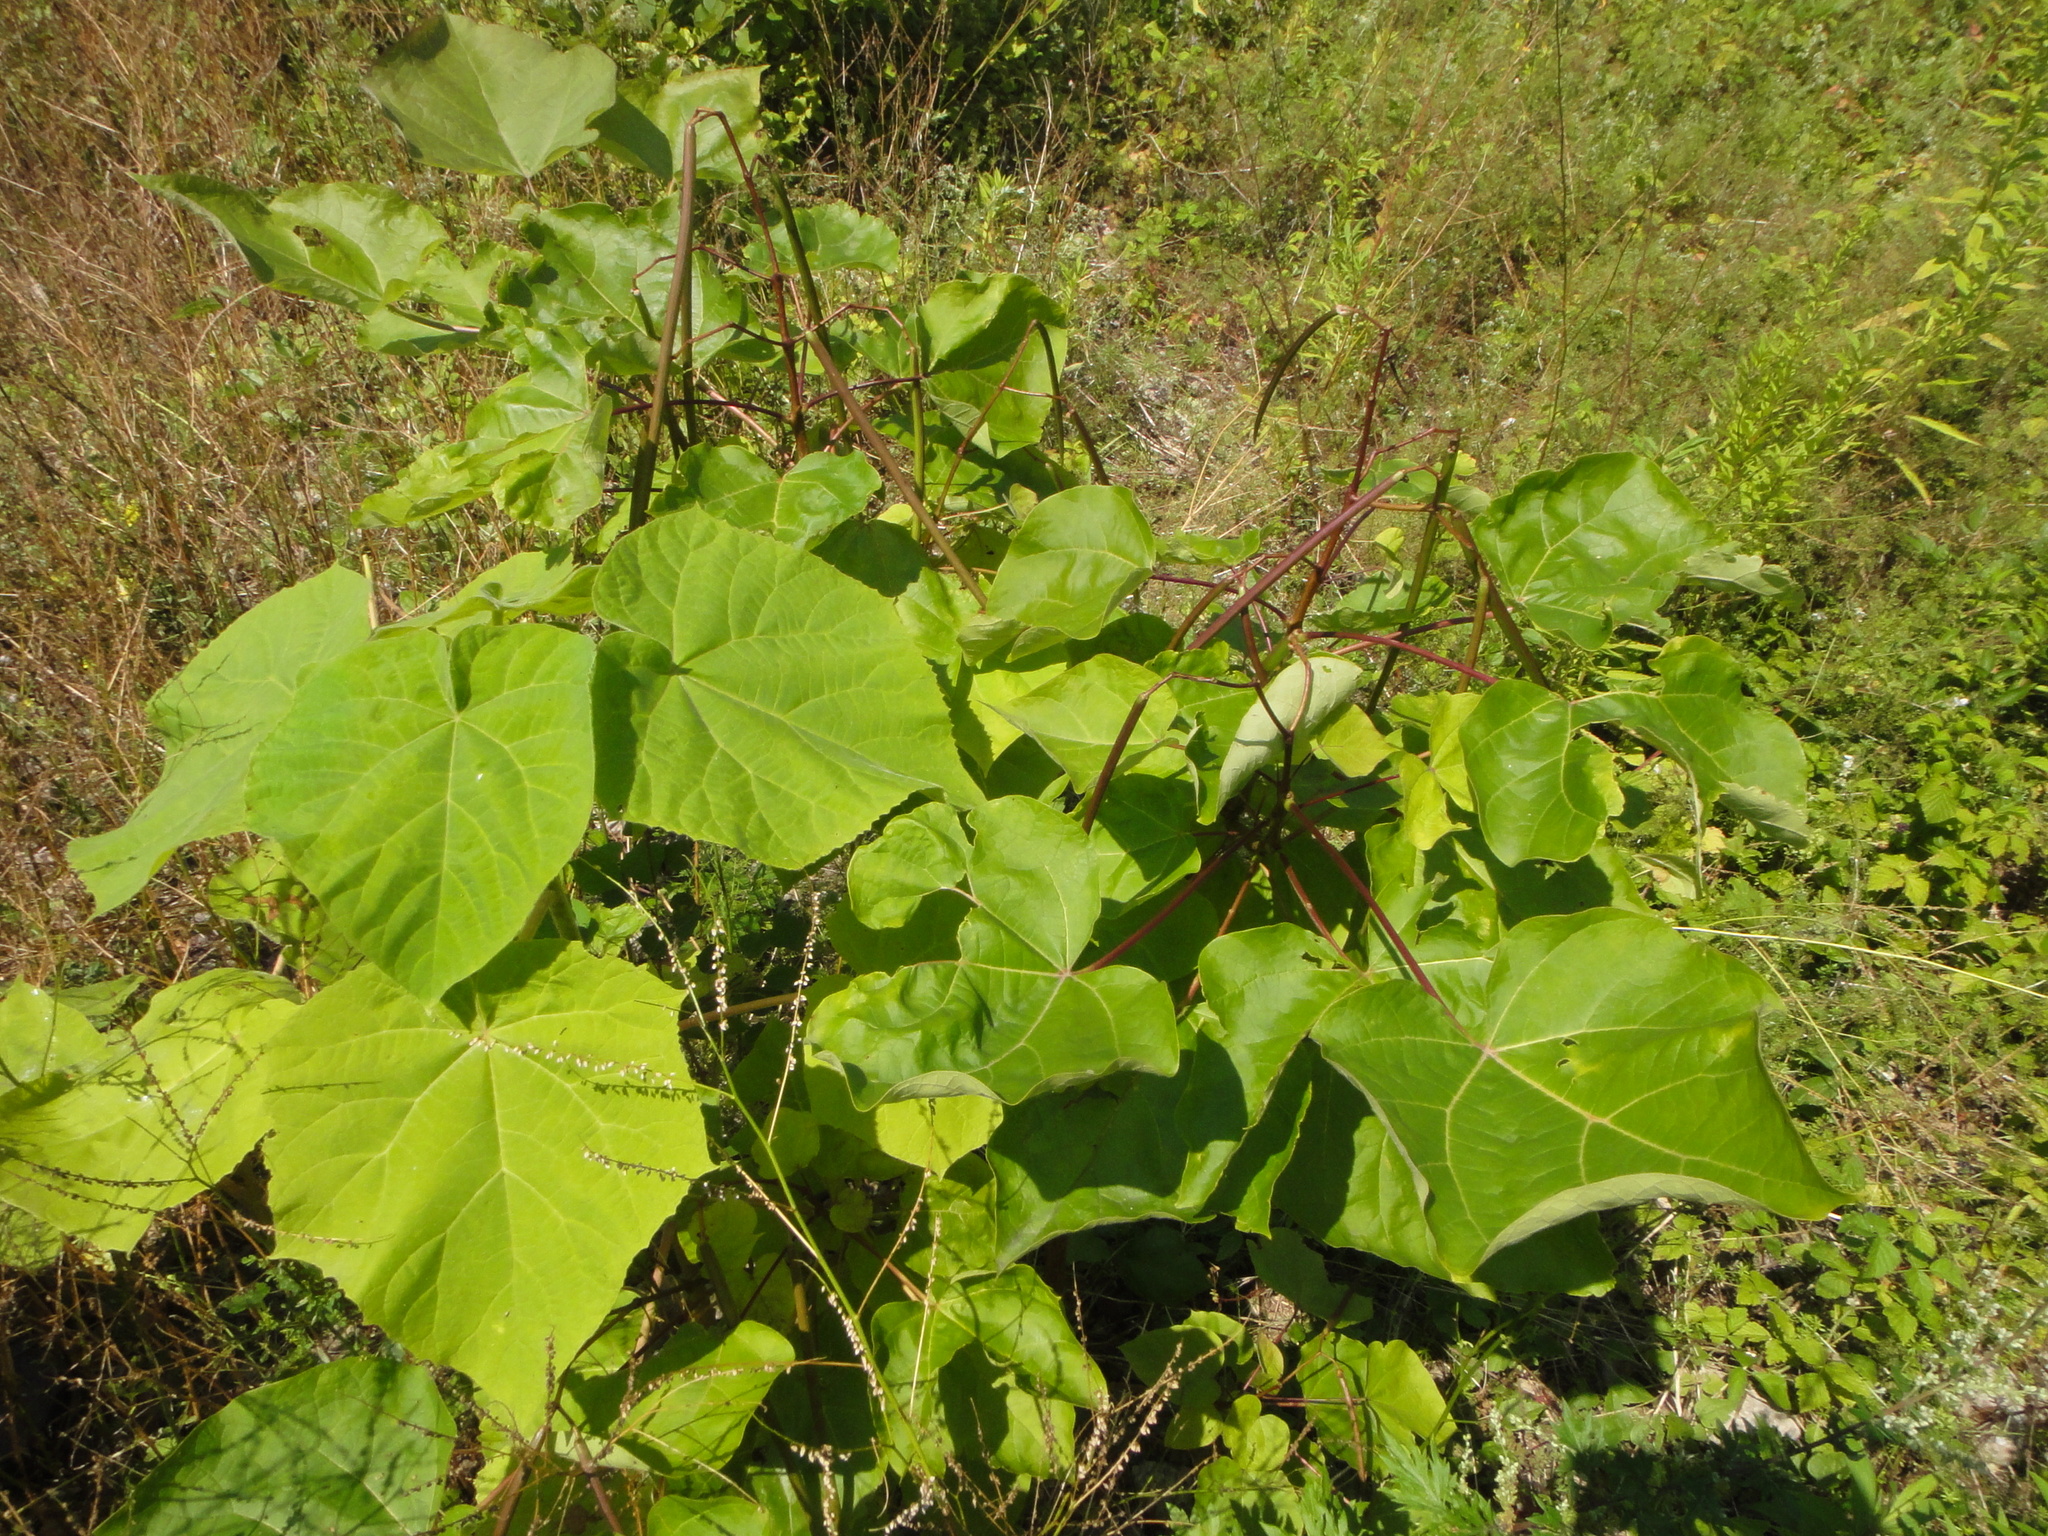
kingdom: Plantae
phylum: Tracheophyta
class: Magnoliopsida
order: Lamiales
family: Bignoniaceae
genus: Catalpa
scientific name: Catalpa bignonioides
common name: Southern catalpa
